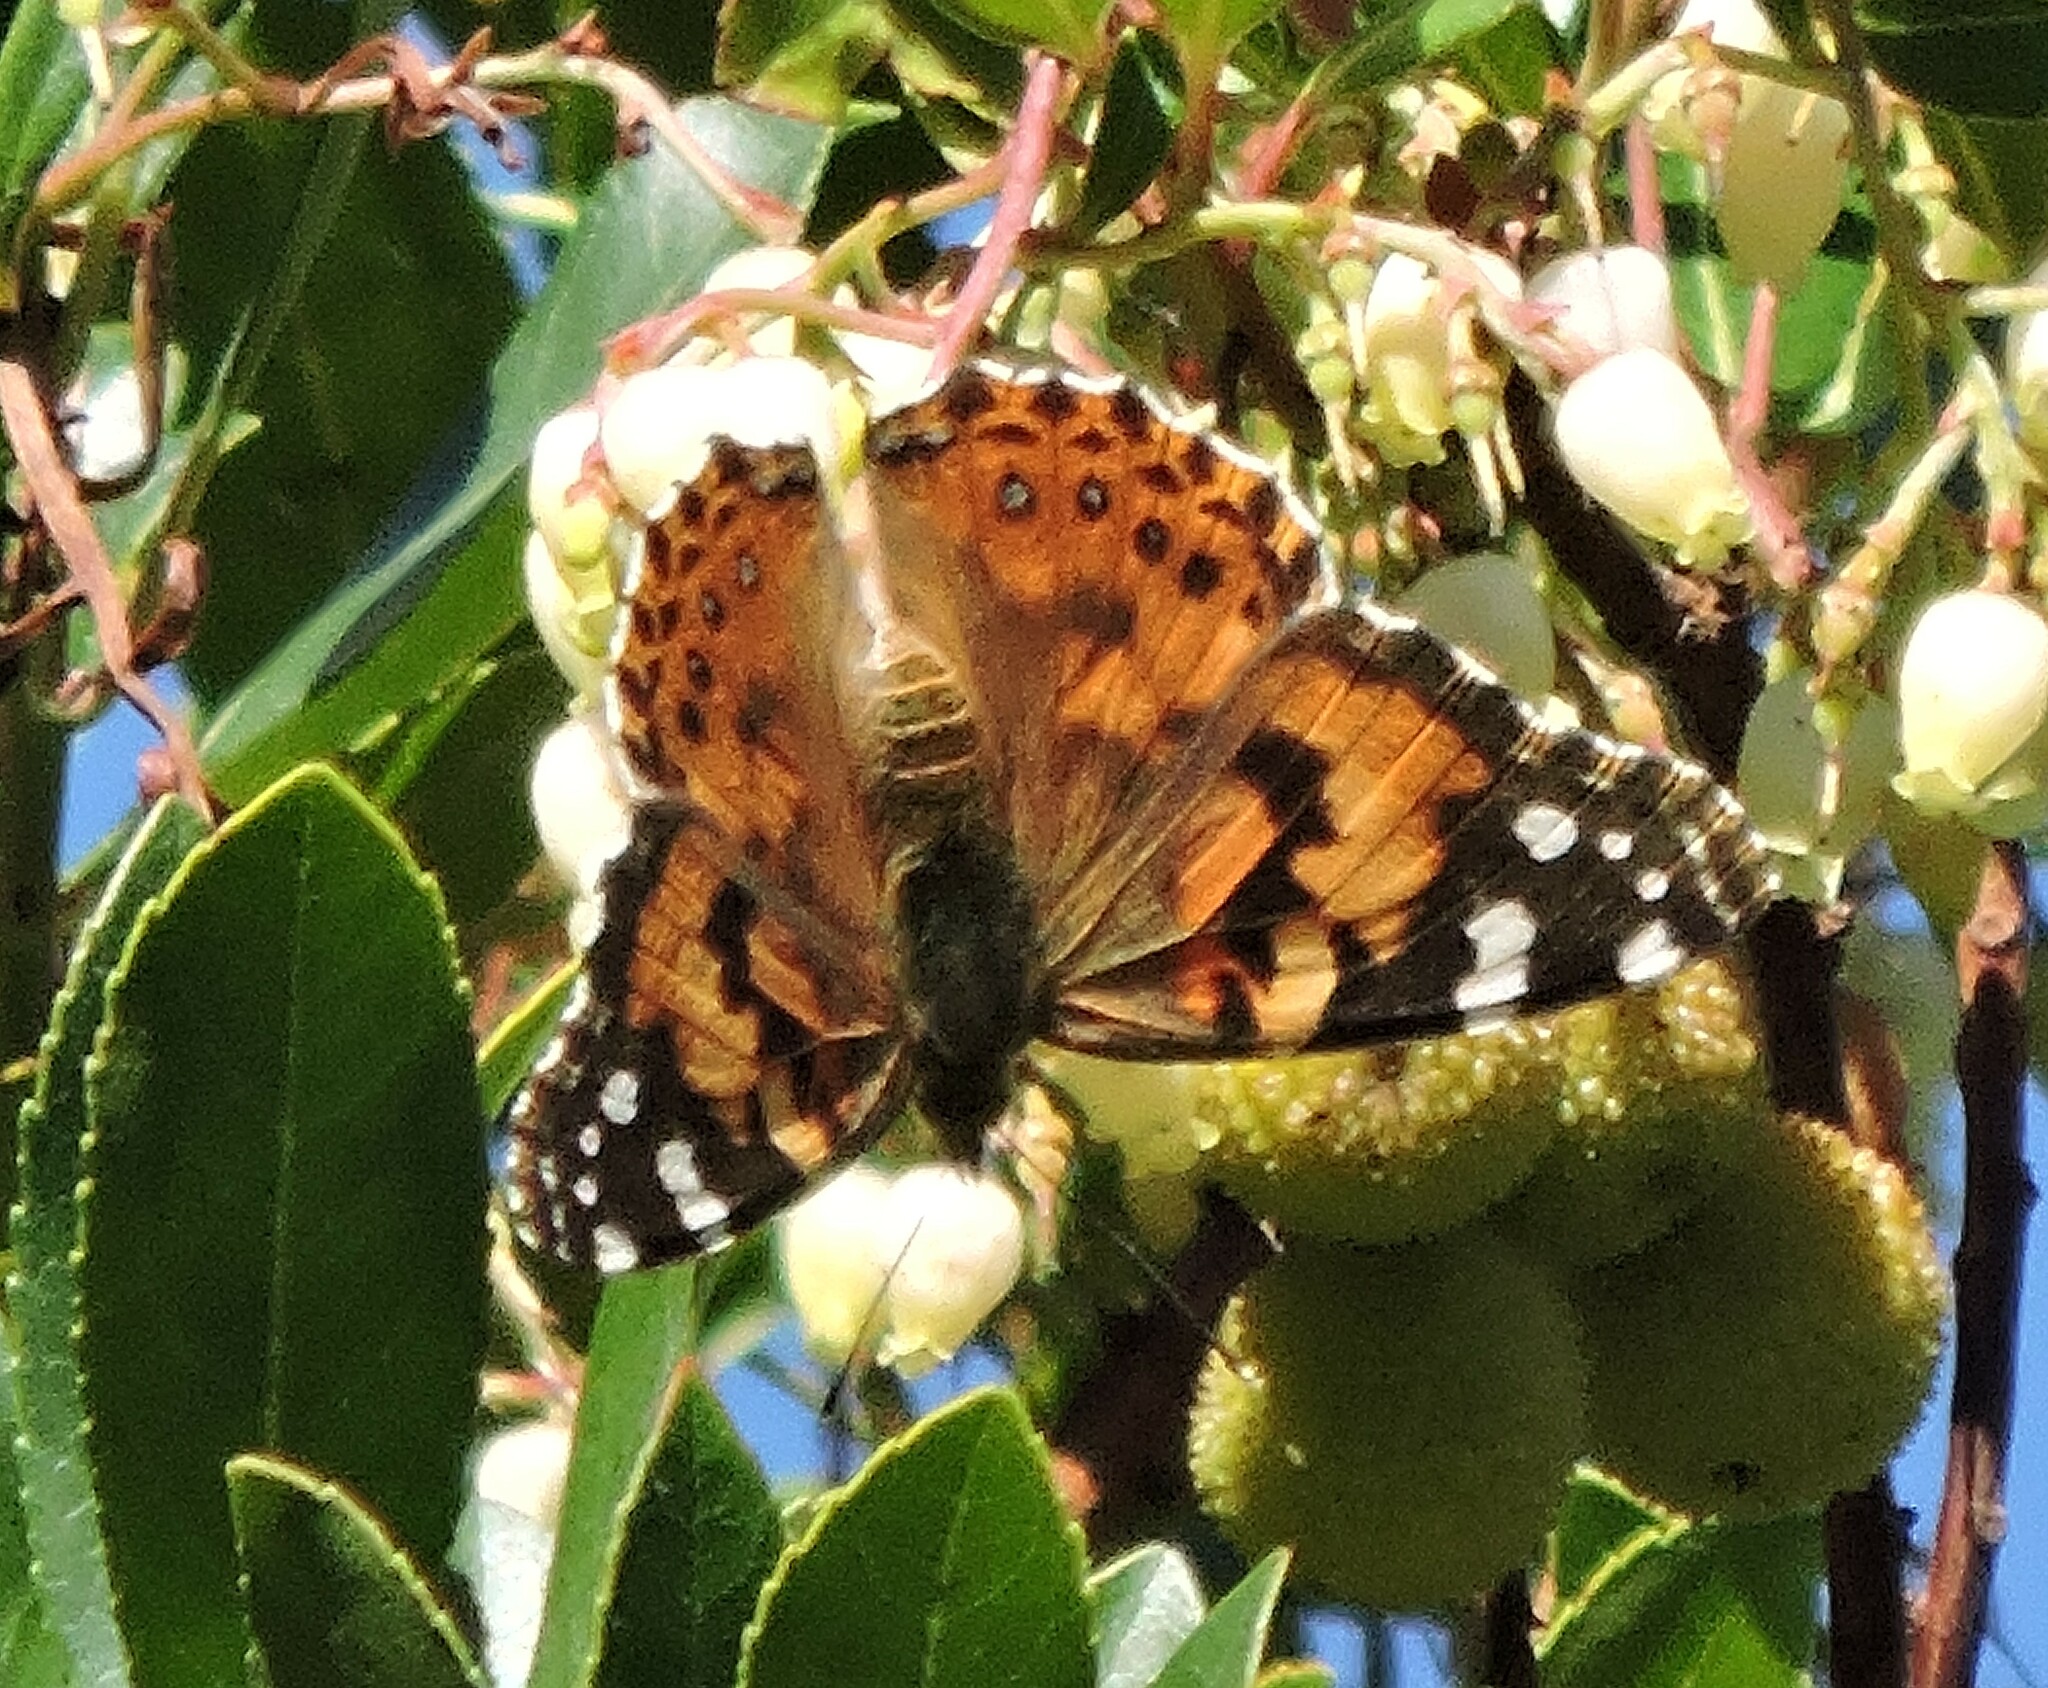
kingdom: Animalia
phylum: Arthropoda
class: Insecta
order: Lepidoptera
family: Nymphalidae
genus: Vanessa
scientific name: Vanessa cardui
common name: Painted lady
